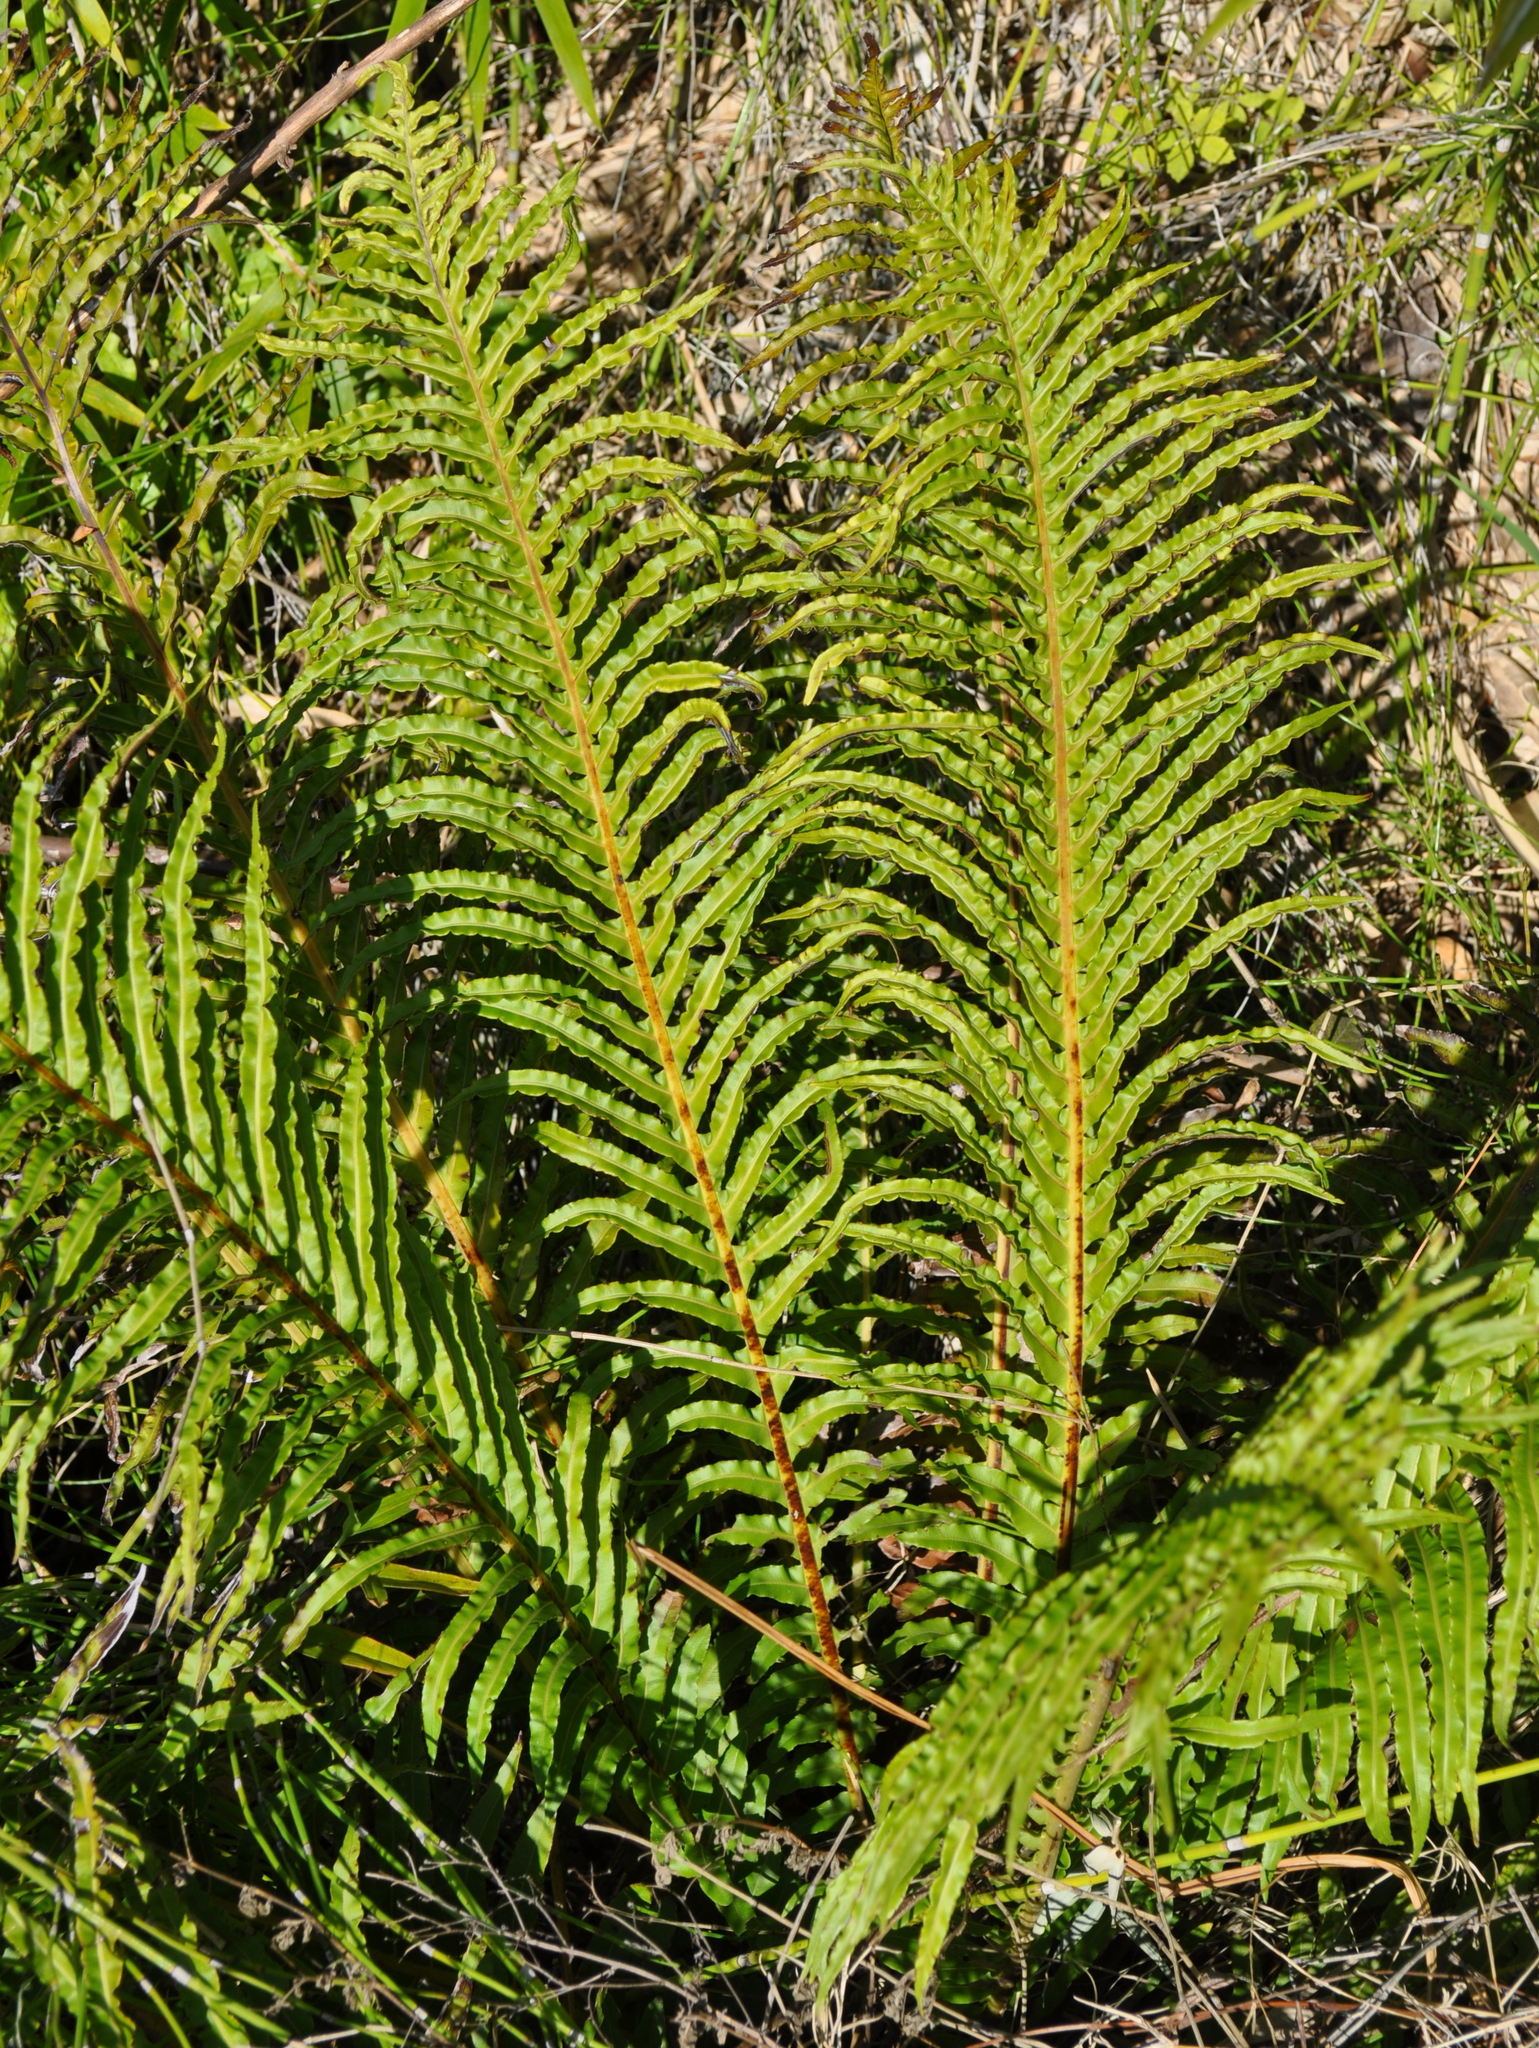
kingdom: Plantae
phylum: Tracheophyta
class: Polypodiopsida
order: Polypodiales
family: Blechnaceae
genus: Neoblechnum
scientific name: Neoblechnum brasiliense
